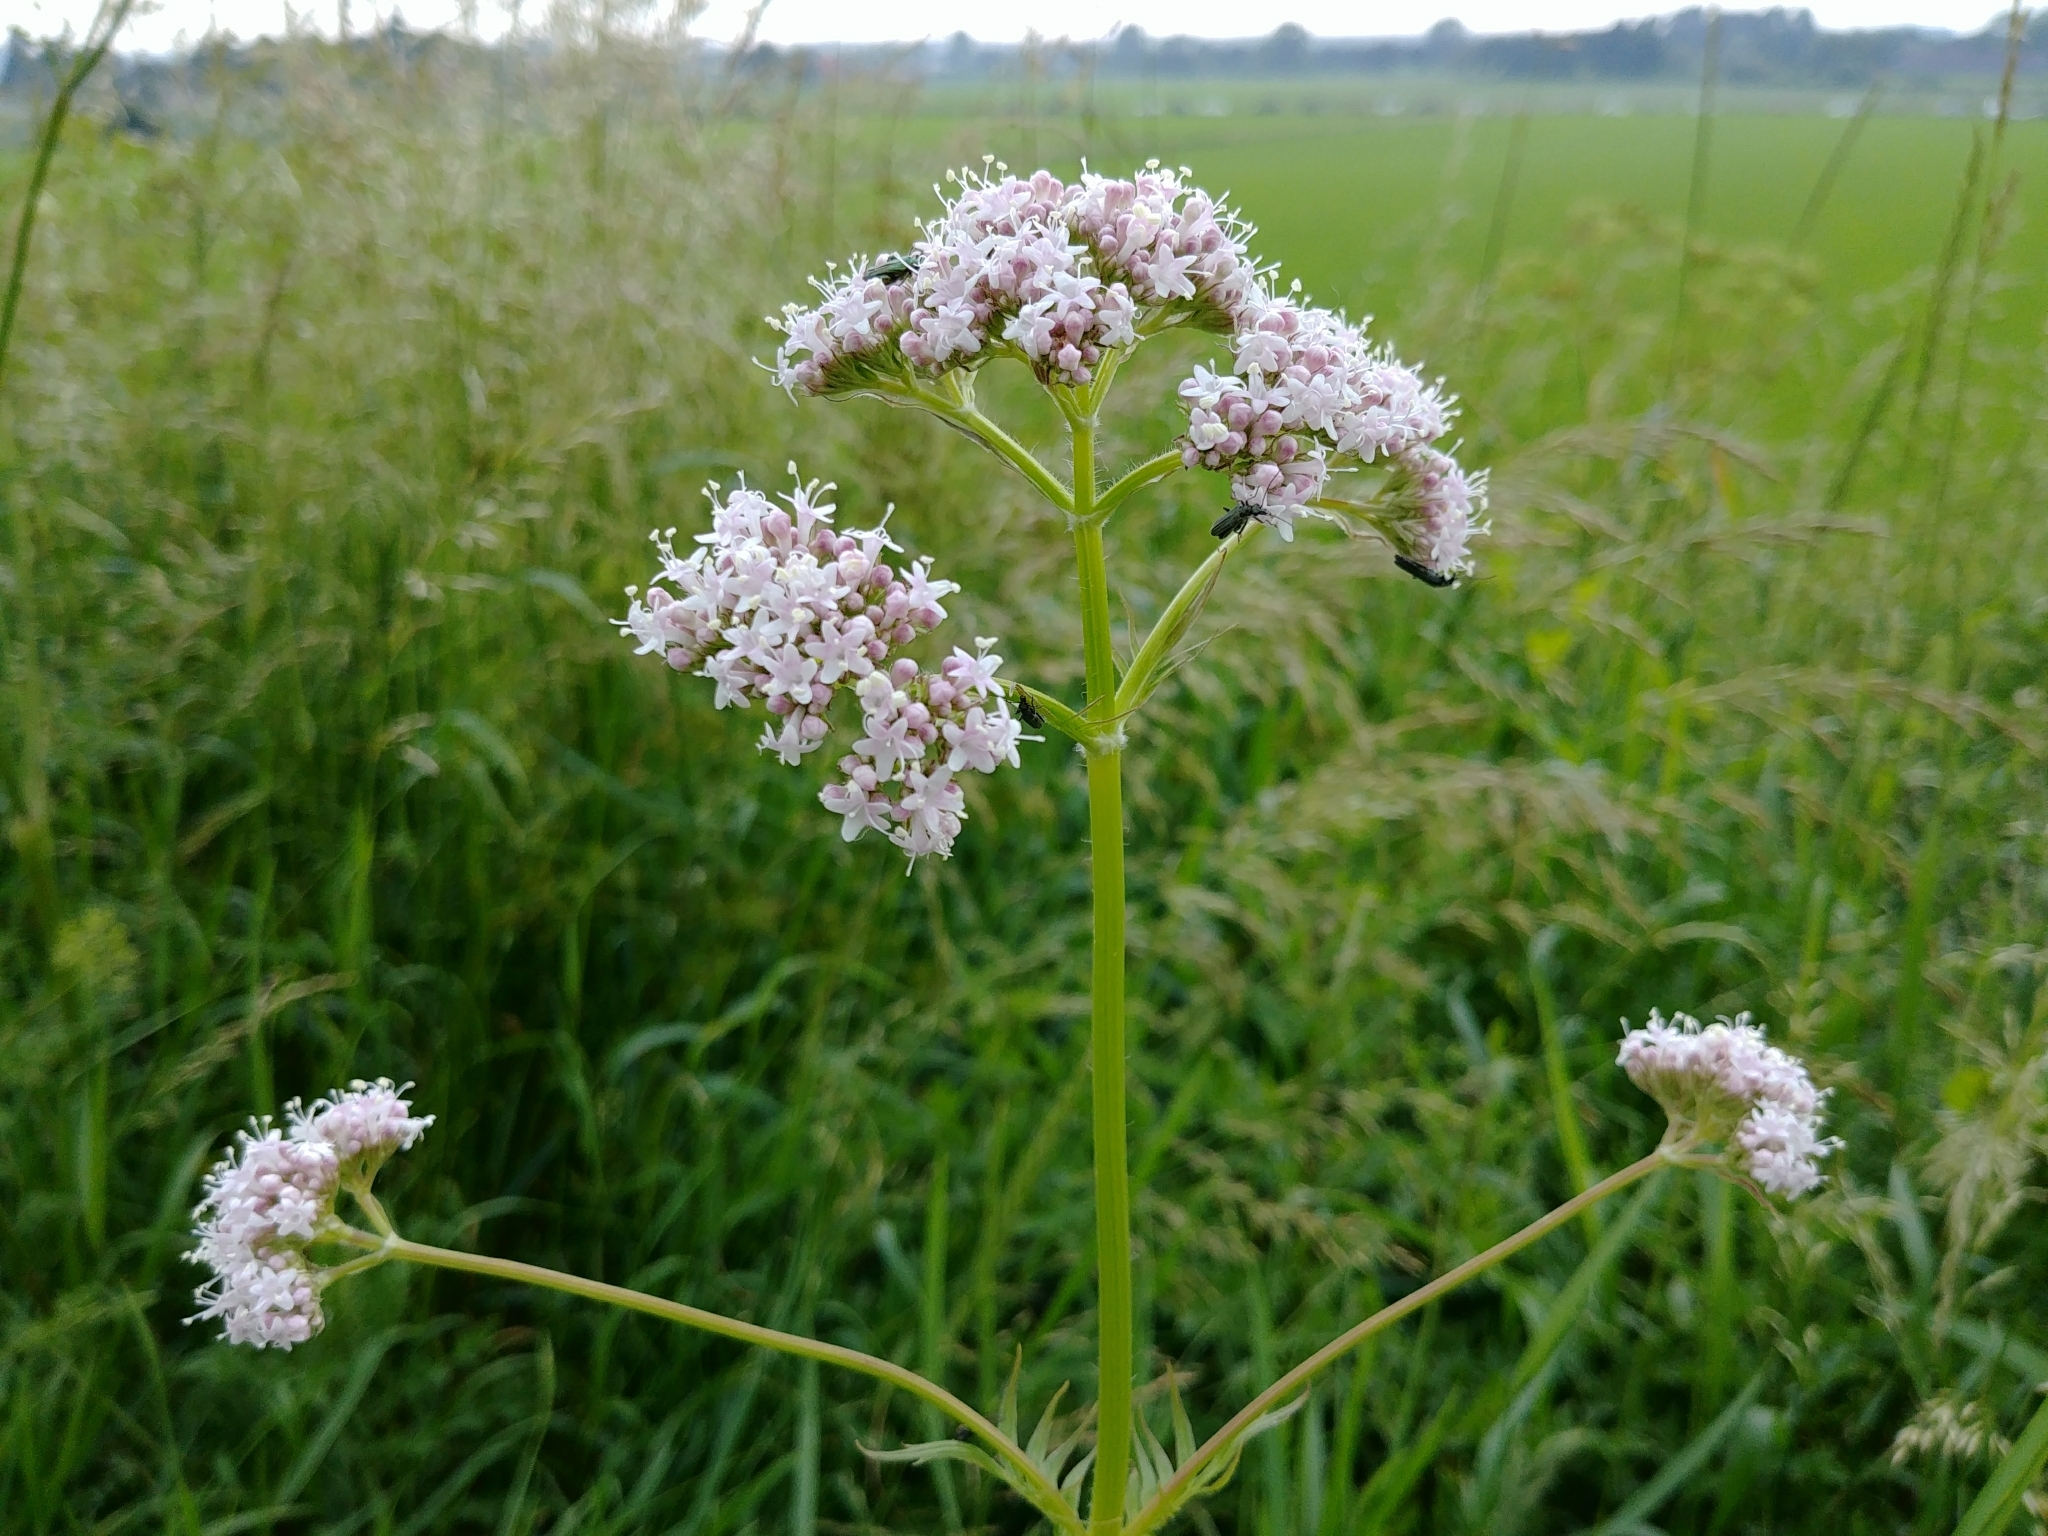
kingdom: Plantae
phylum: Tracheophyta
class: Magnoliopsida
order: Dipsacales
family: Caprifoliaceae
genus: Valeriana
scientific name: Valeriana officinalis
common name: Common valerian
